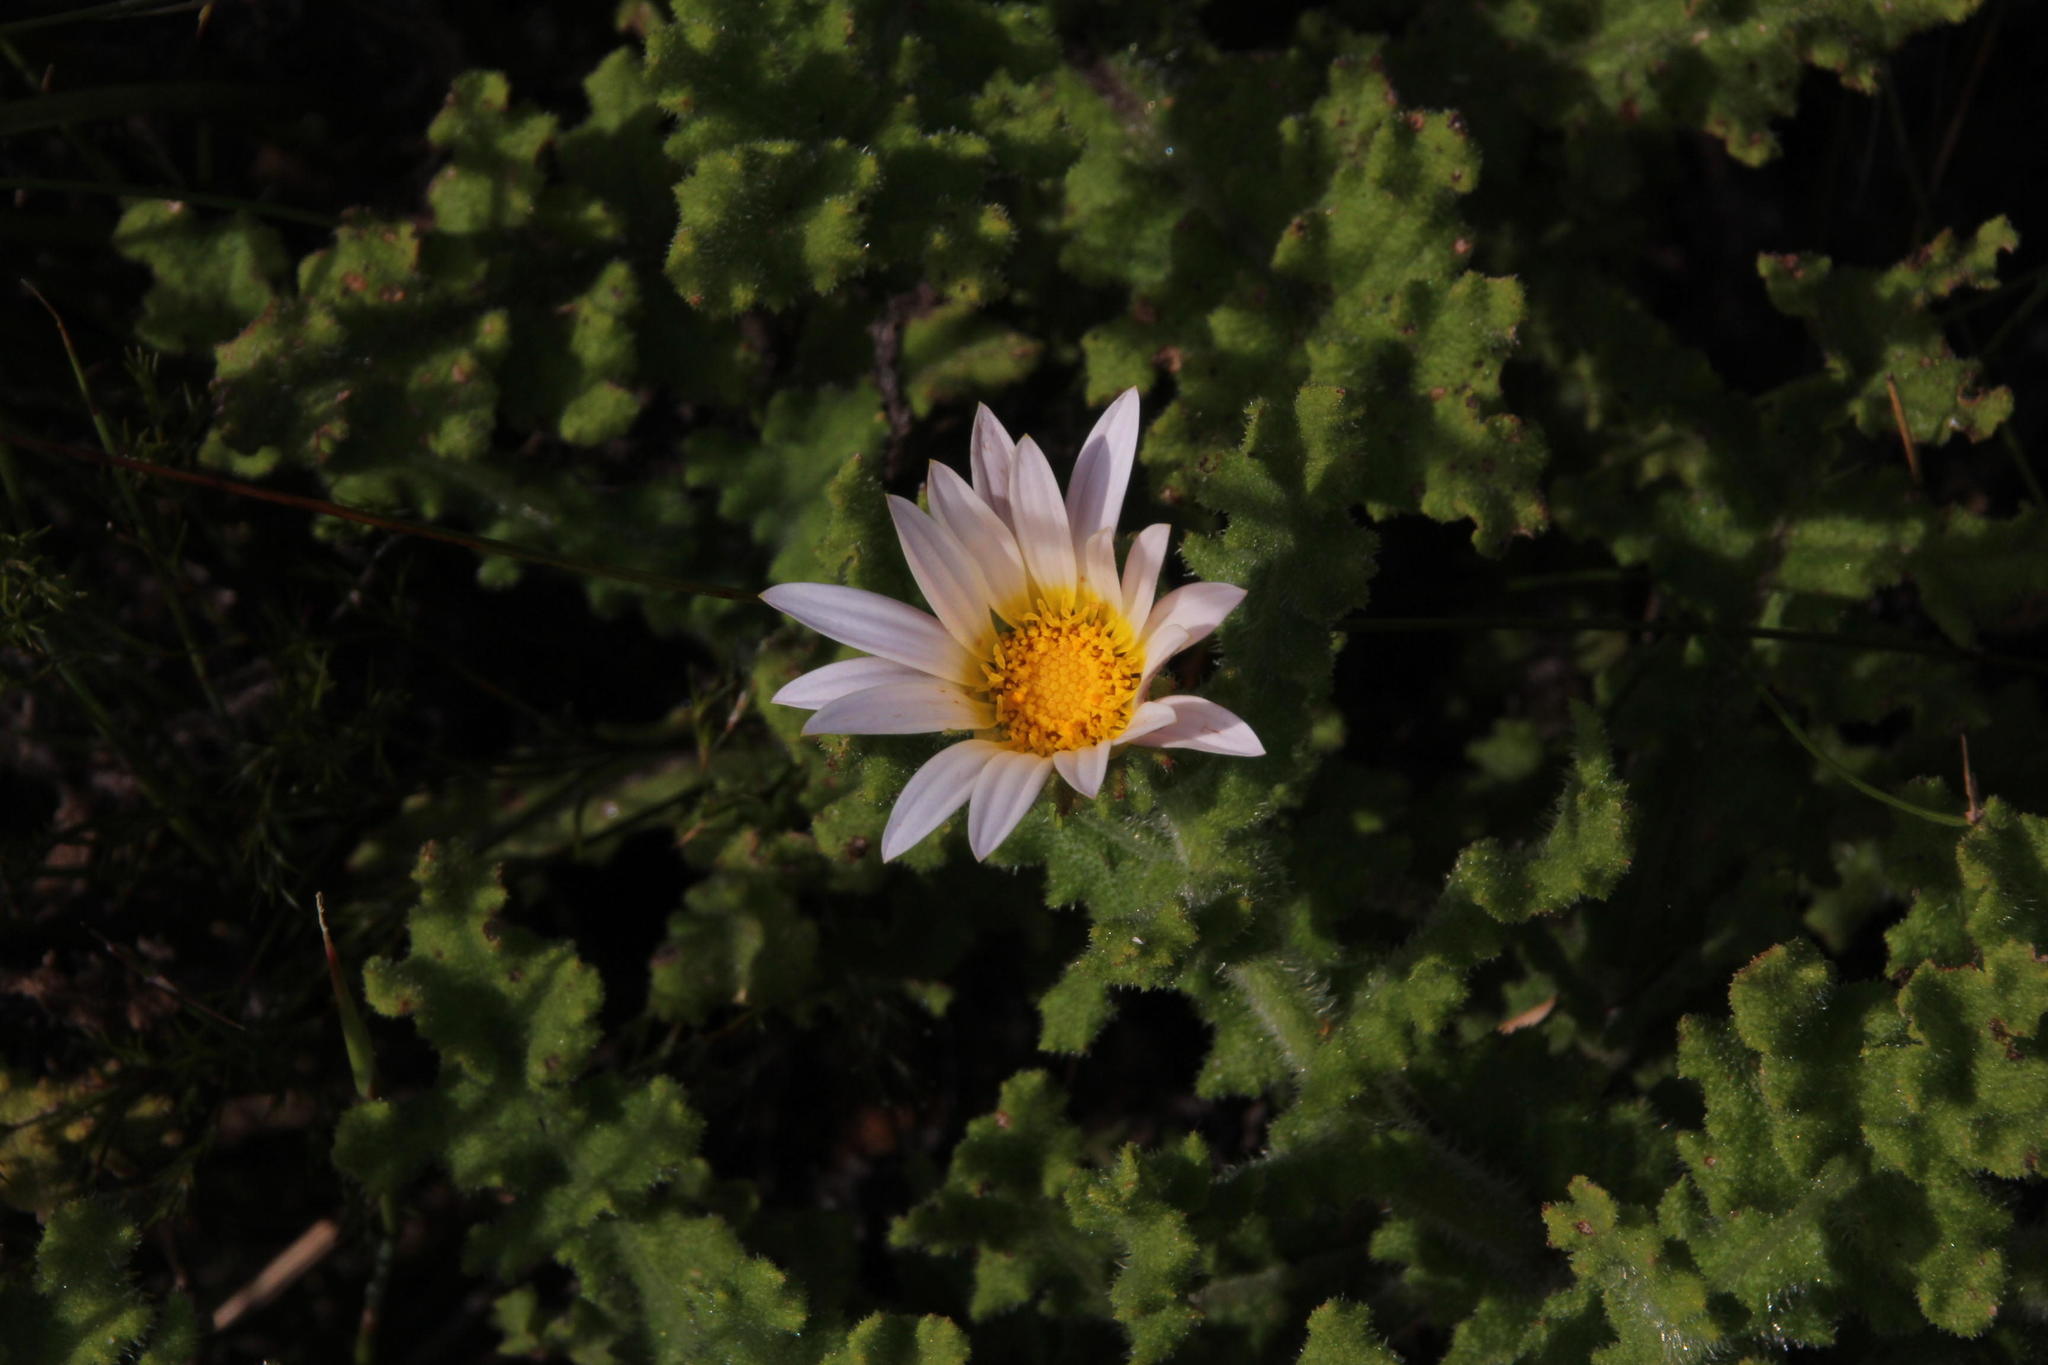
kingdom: Plantae
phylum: Tracheophyta
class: Magnoliopsida
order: Asterales
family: Asteraceae
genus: Arctotis
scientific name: Arctotis aspera
